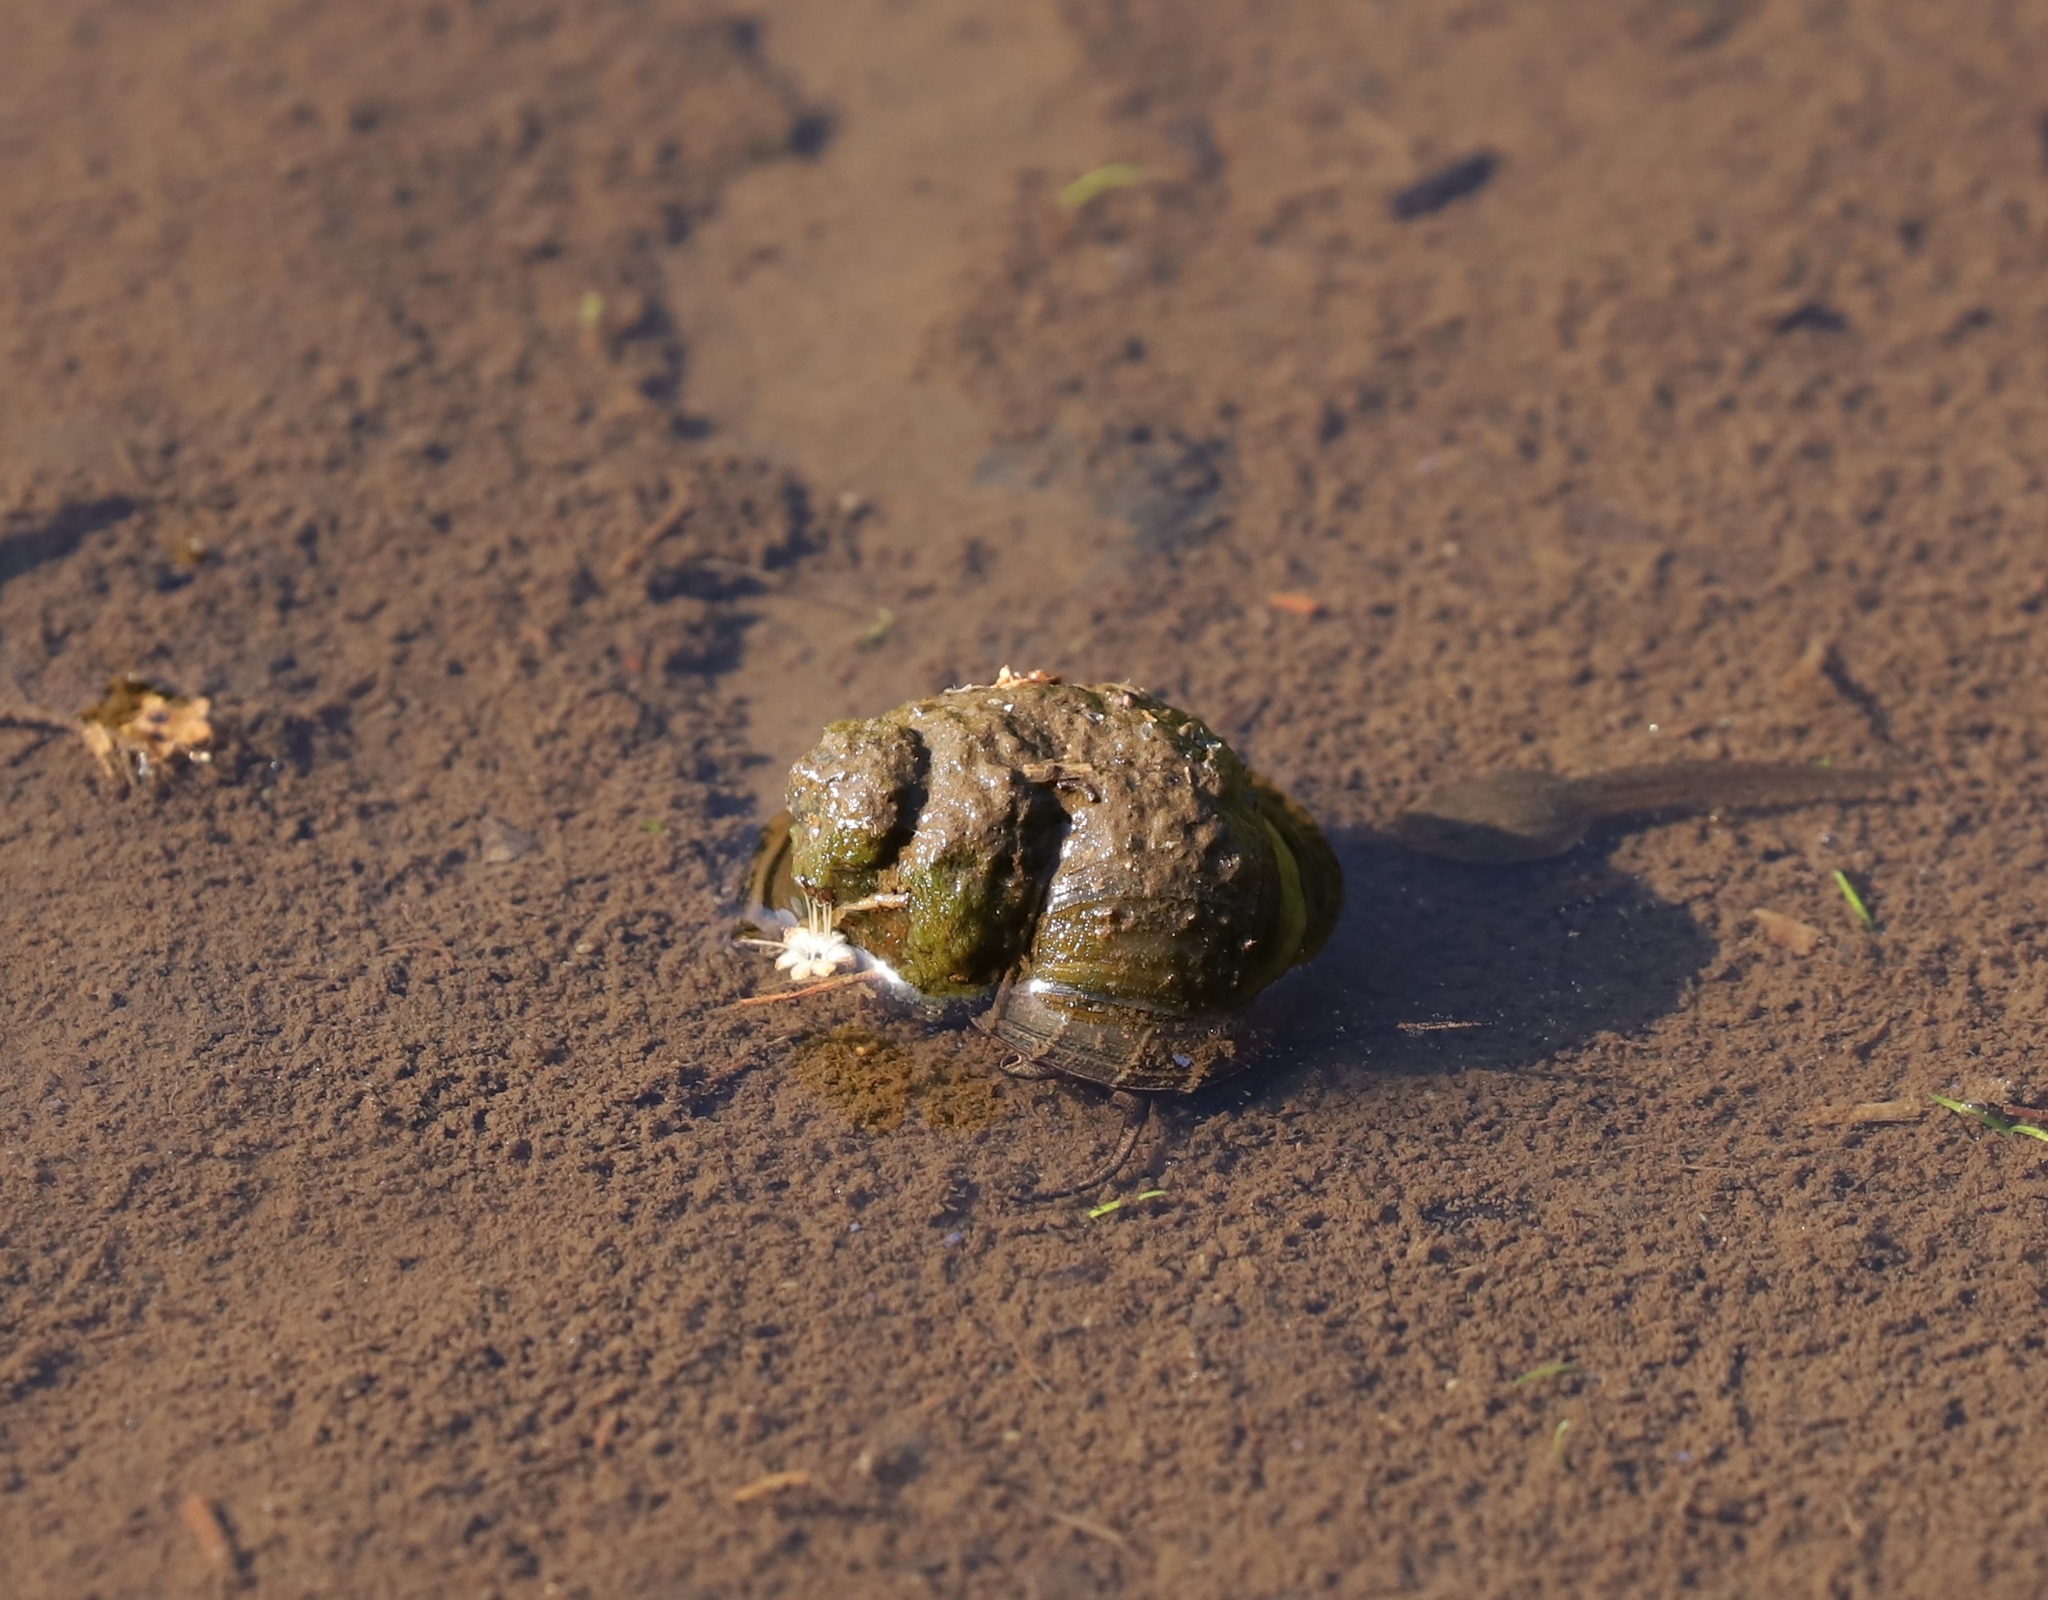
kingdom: Animalia
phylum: Mollusca
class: Gastropoda
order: Architaenioglossa
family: Viviparidae
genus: Cipangopaludina
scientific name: Cipangopaludina malleata
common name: Japanese trapdoor snail
